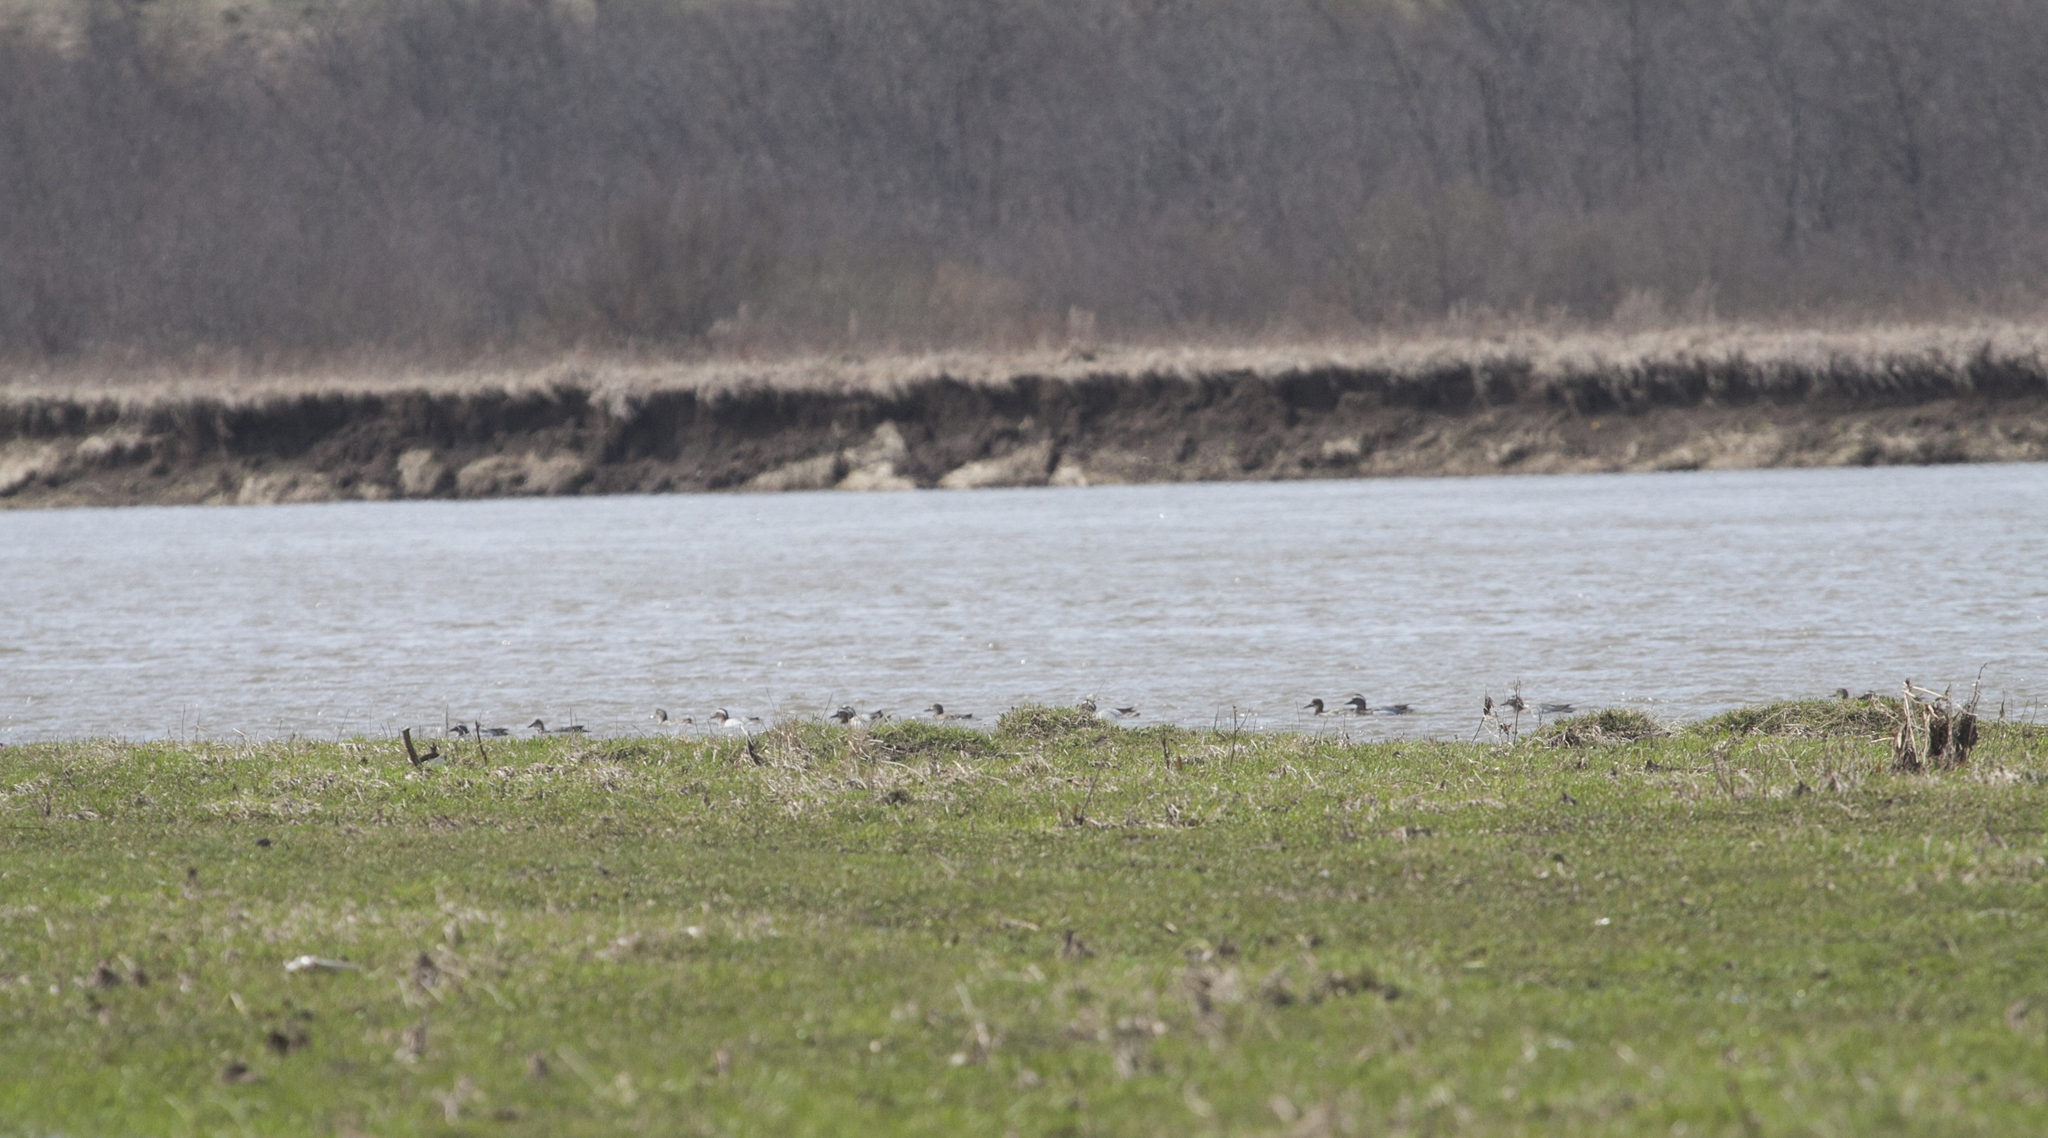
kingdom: Animalia
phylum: Chordata
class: Aves
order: Anseriformes
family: Anatidae
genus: Spatula
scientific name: Spatula querquedula
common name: Garganey
